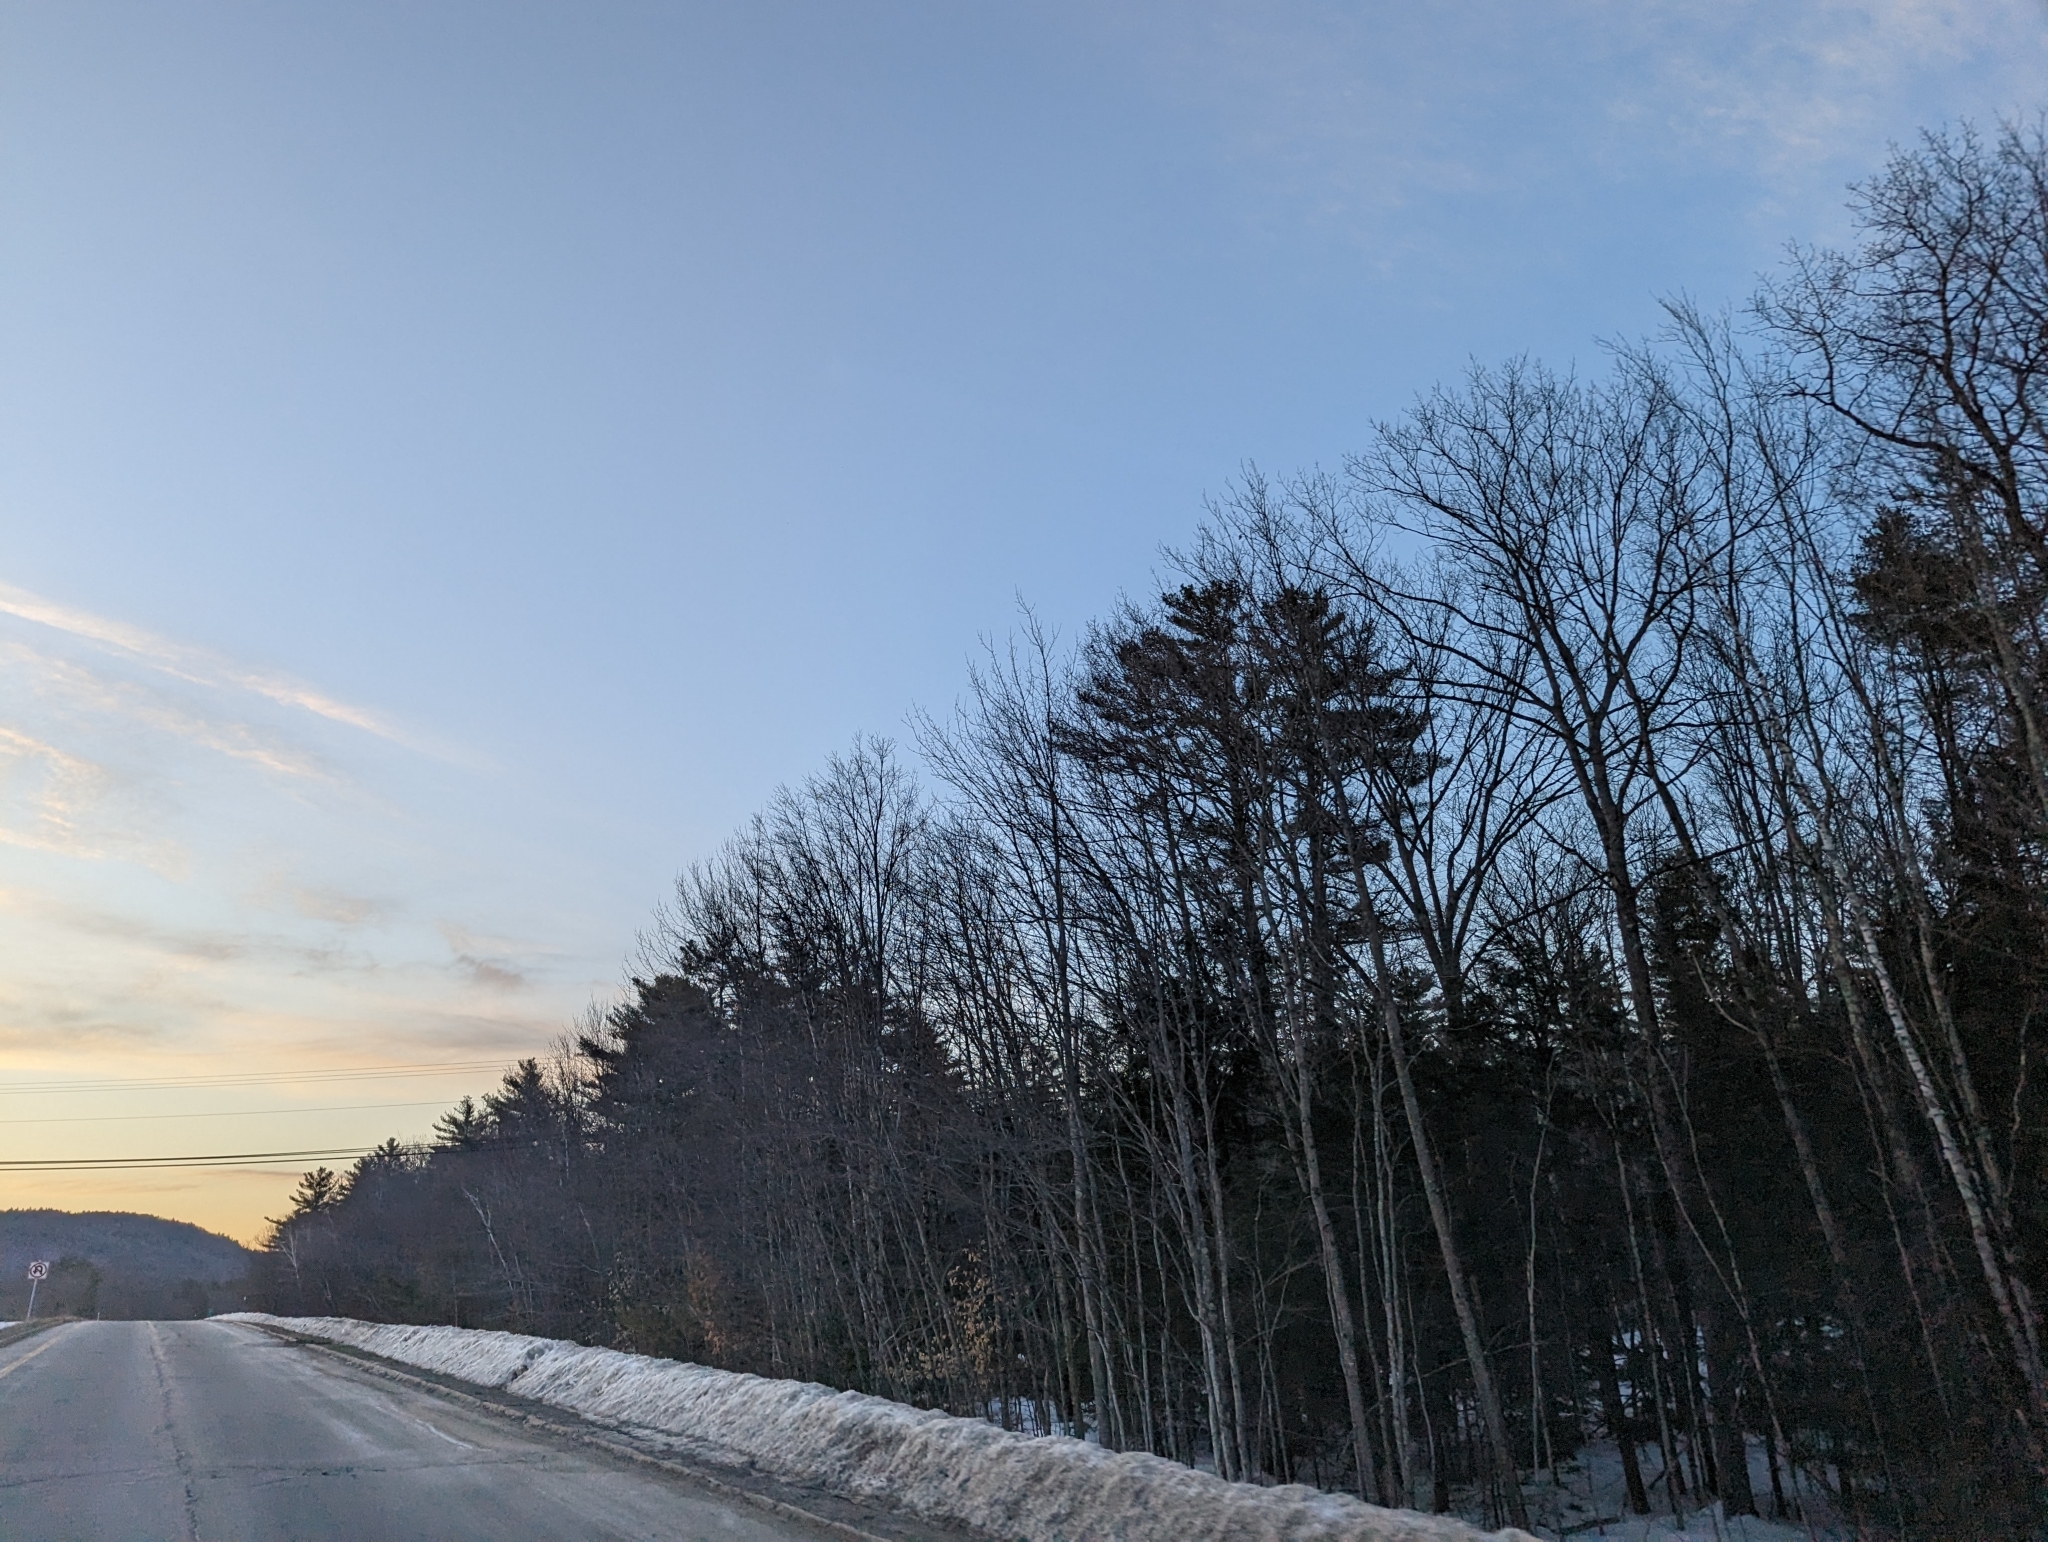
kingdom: Plantae
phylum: Tracheophyta
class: Pinopsida
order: Pinales
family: Pinaceae
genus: Pinus
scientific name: Pinus strobus
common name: Weymouth pine
